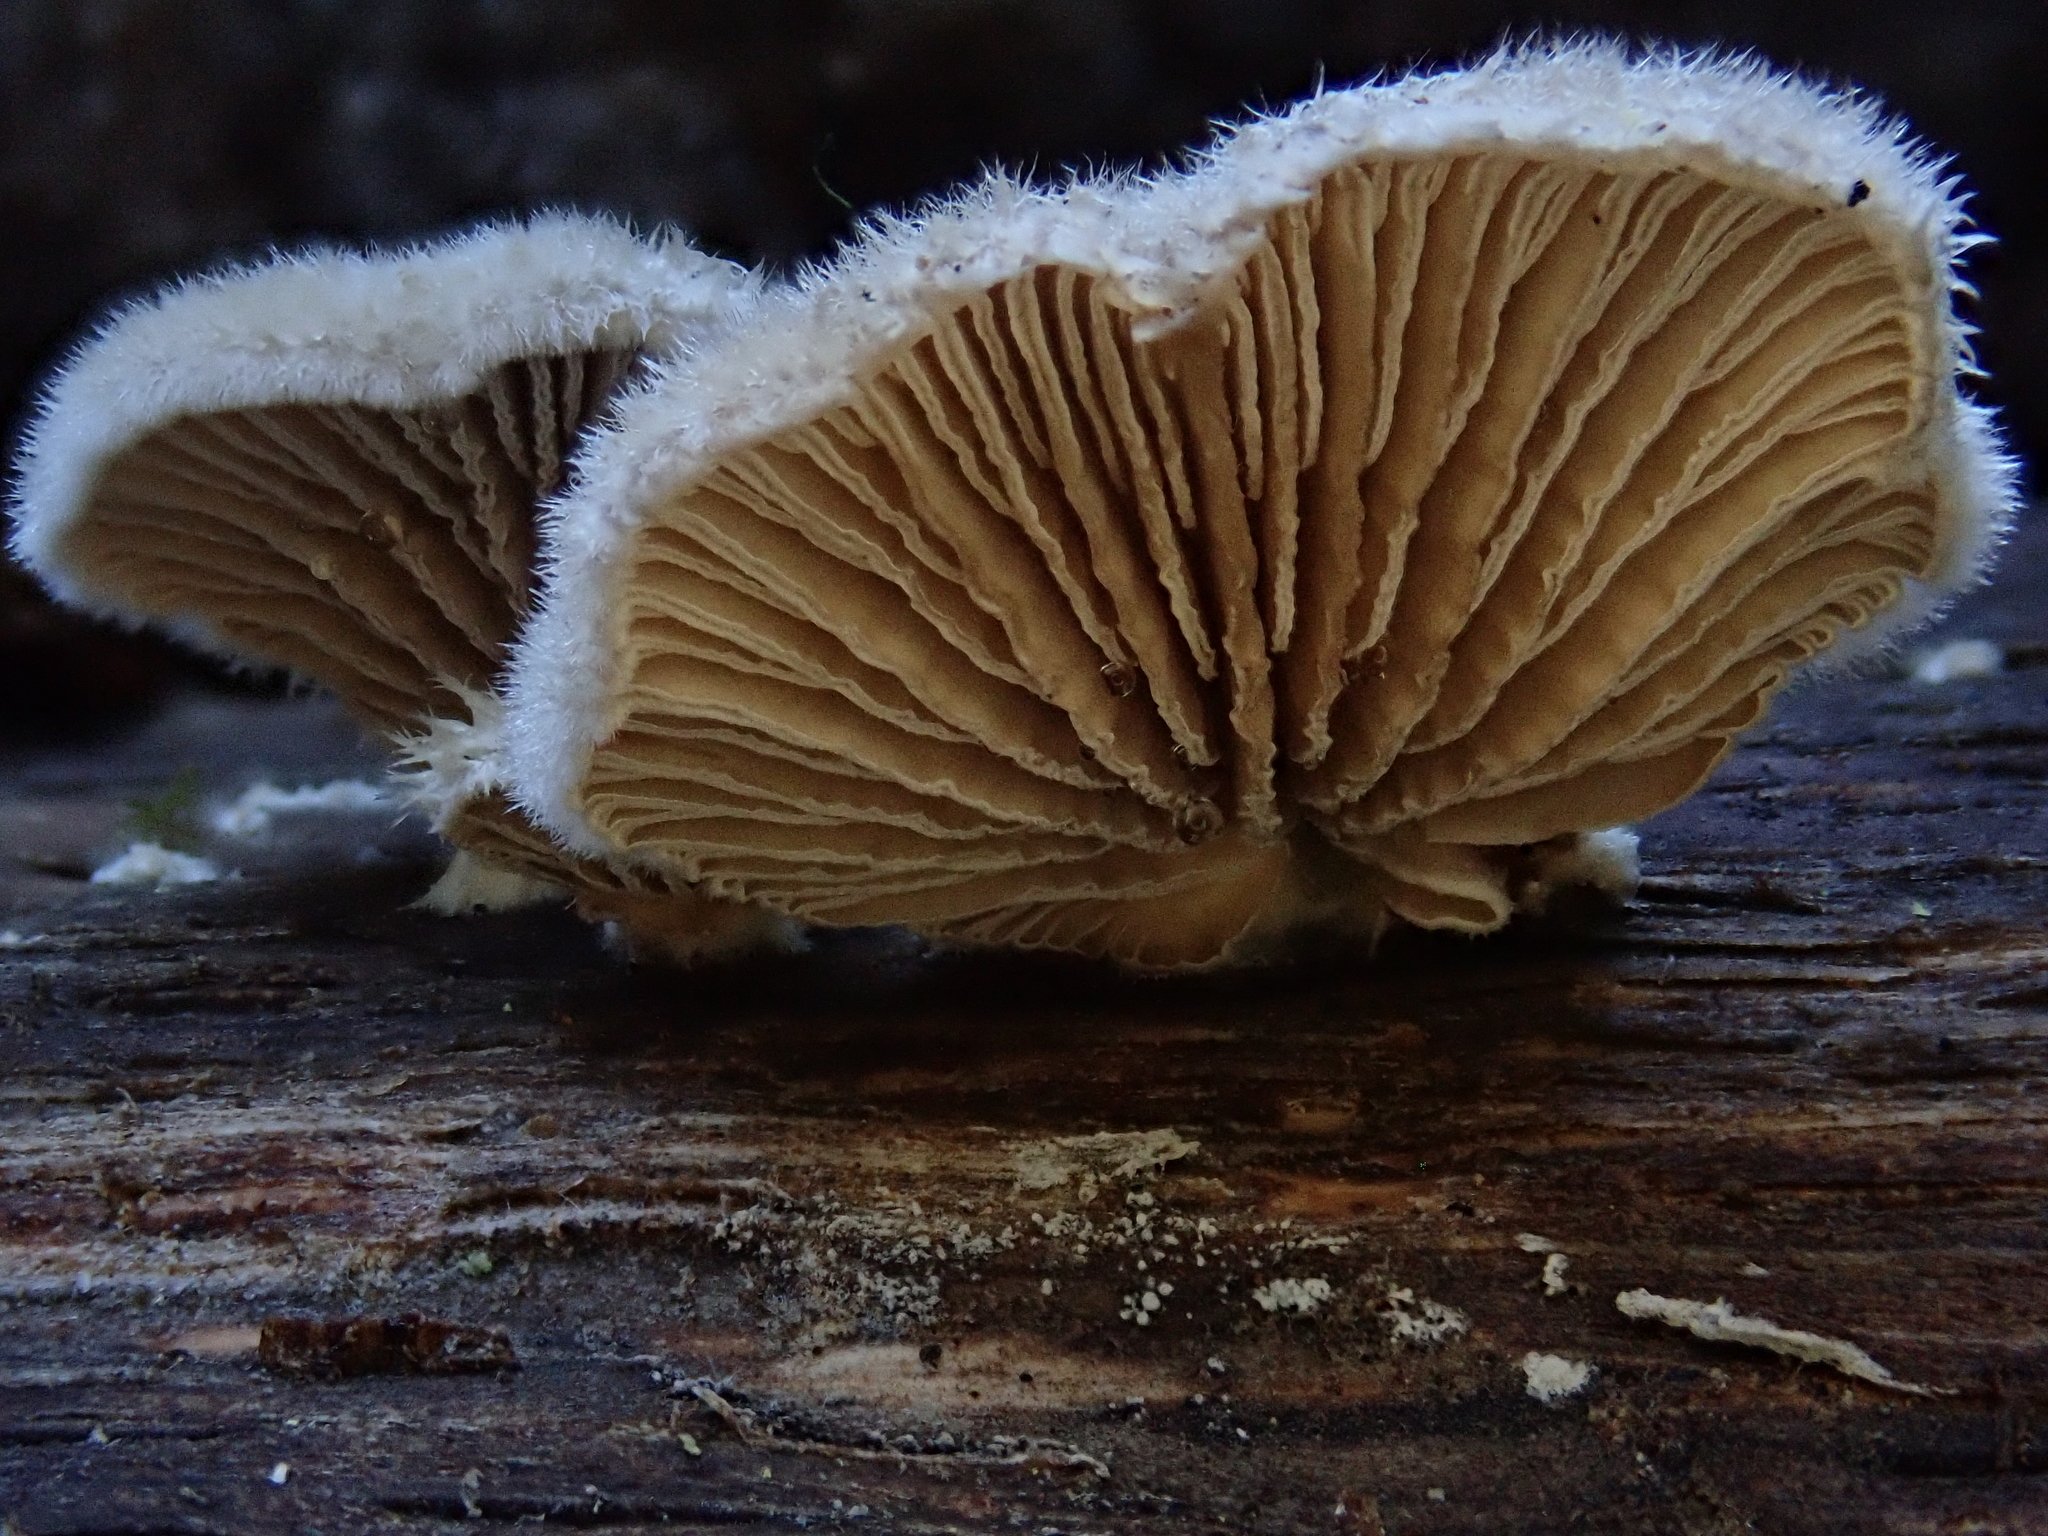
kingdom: Fungi
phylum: Basidiomycota
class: Agaricomycetes
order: Agaricales
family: Schizophyllaceae
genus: Schizophyllum
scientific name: Schizophyllum commune
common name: Common porecrust
